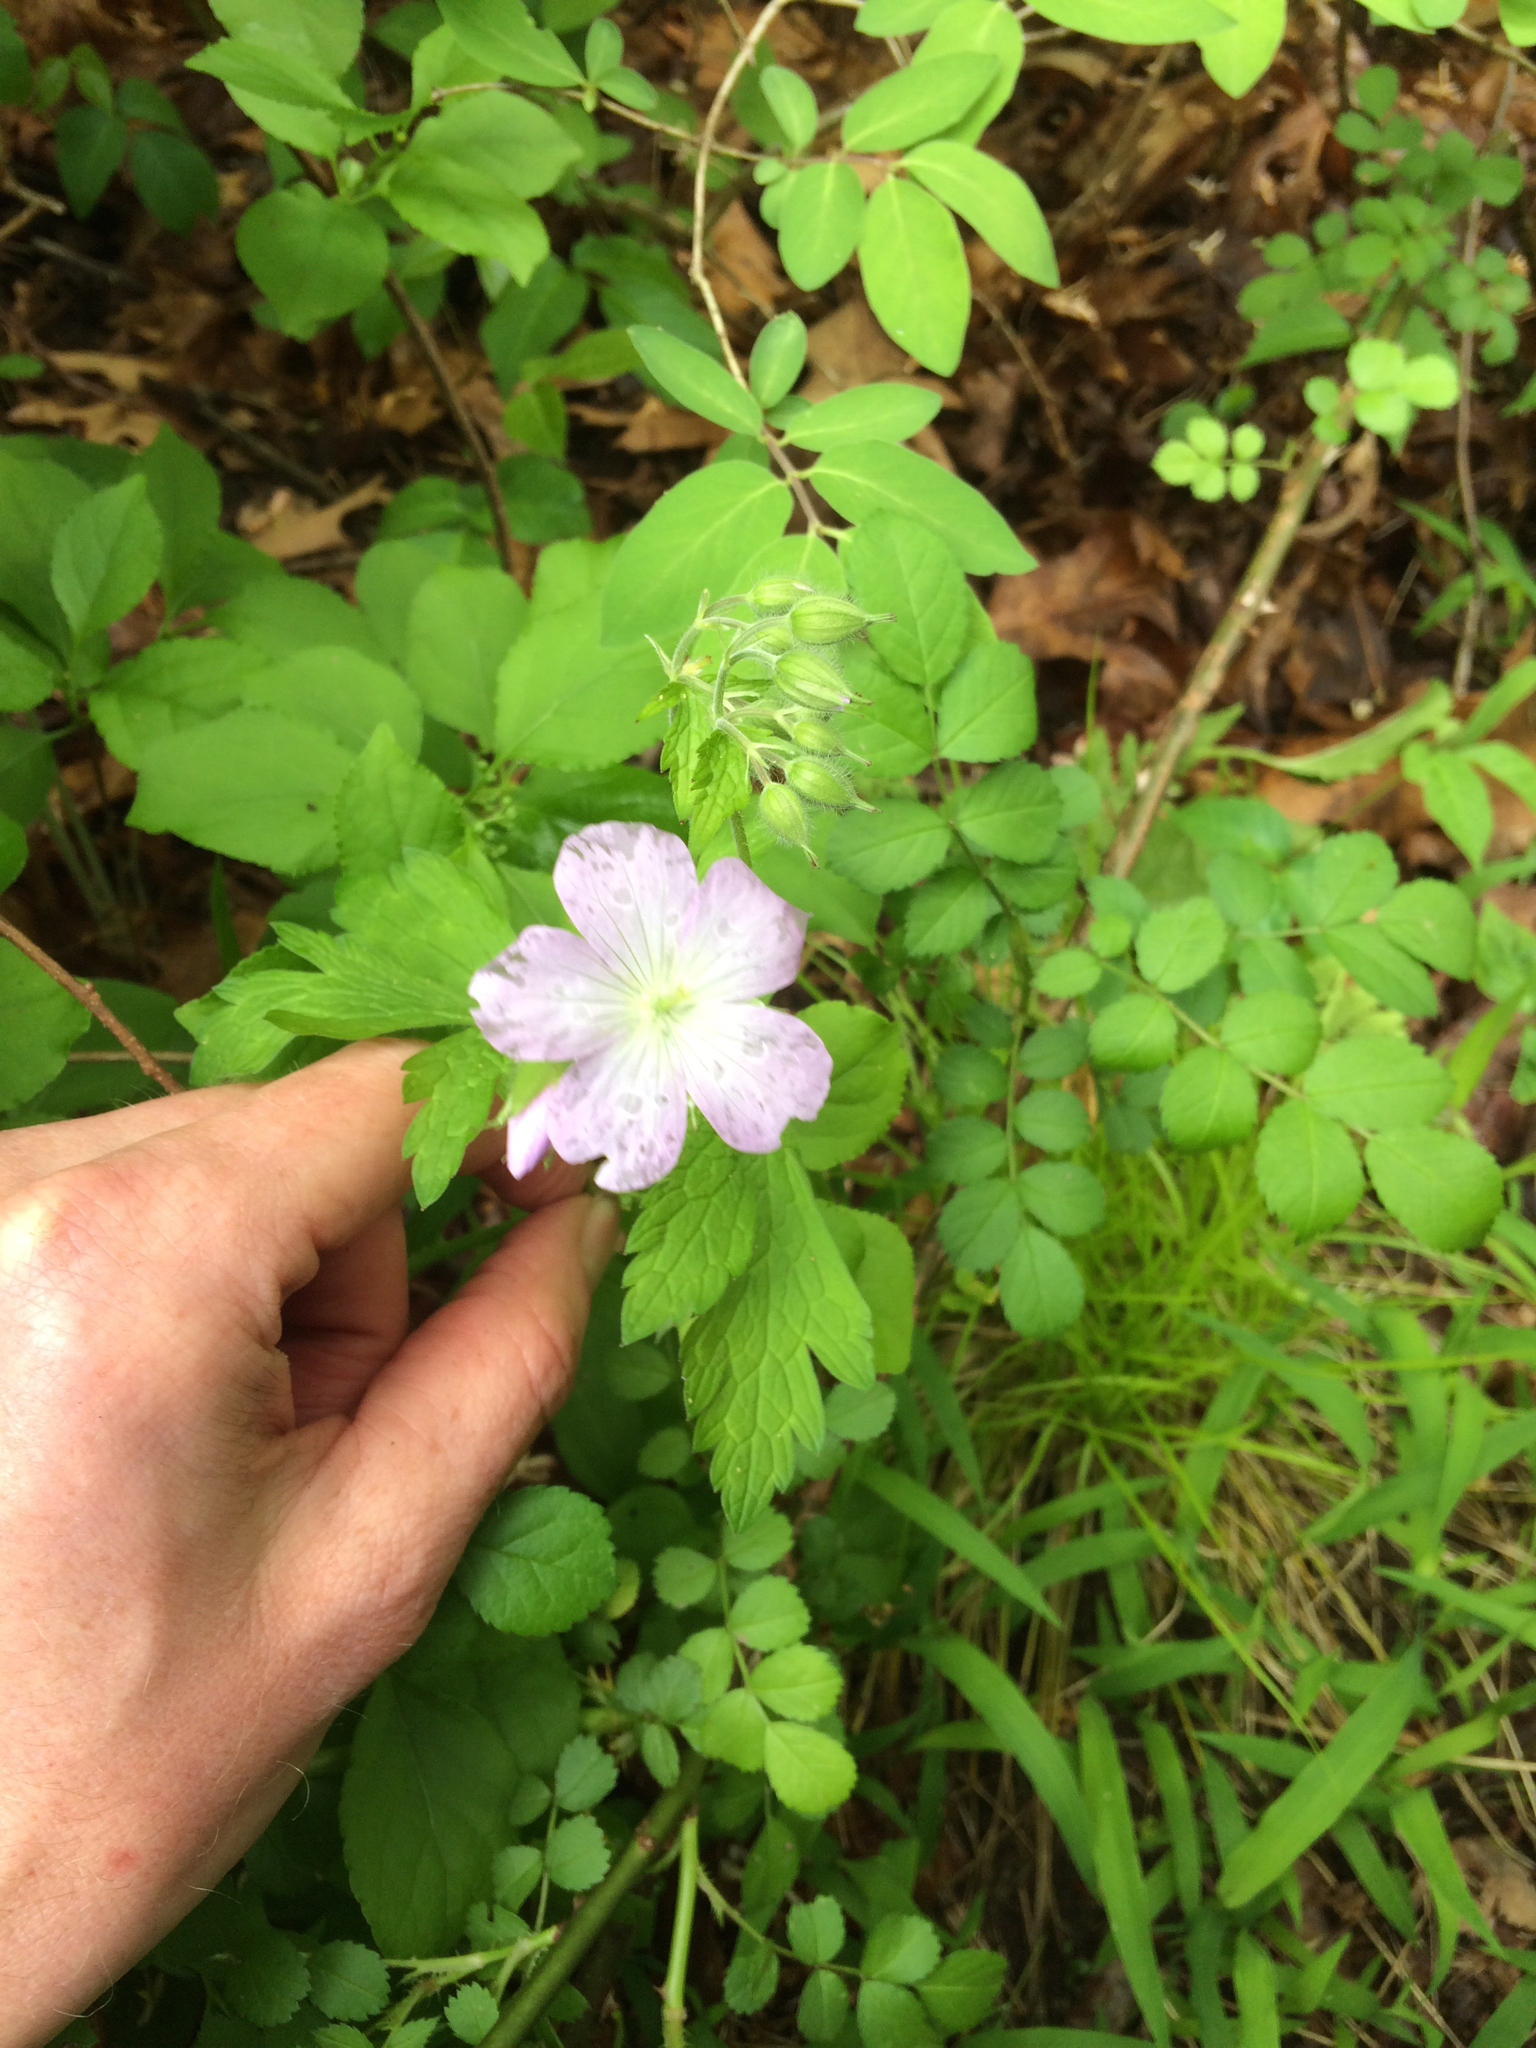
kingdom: Plantae
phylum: Tracheophyta
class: Magnoliopsida
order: Geraniales
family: Geraniaceae
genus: Geranium
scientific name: Geranium maculatum
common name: Spotted geranium
